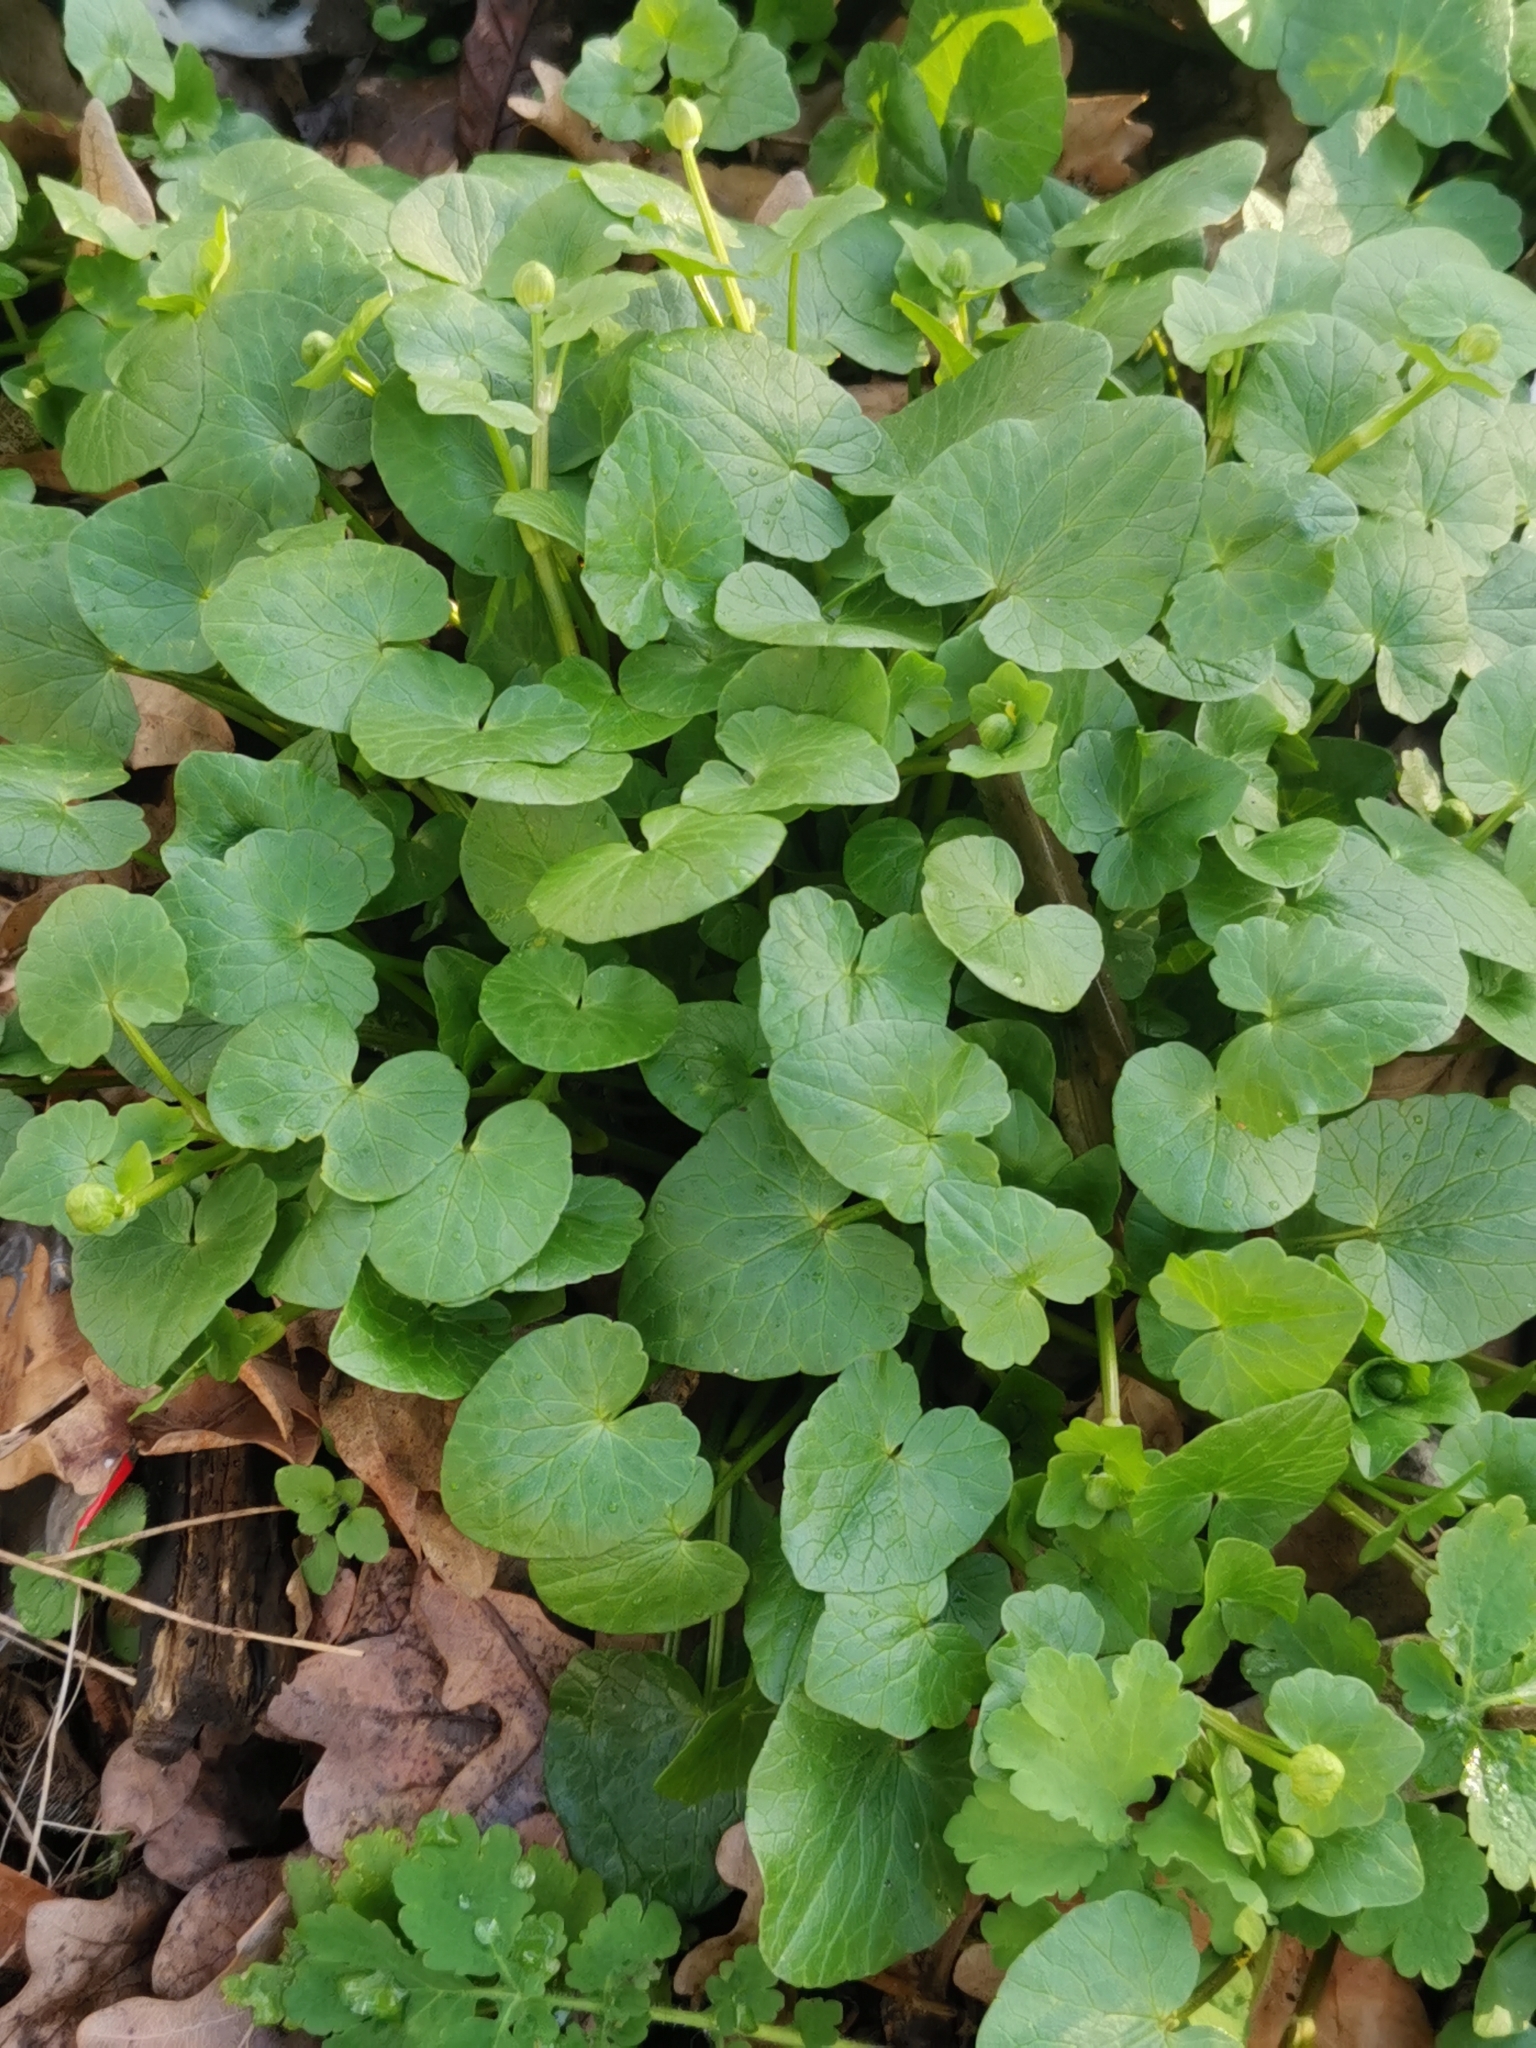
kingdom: Plantae
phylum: Tracheophyta
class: Magnoliopsida
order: Ranunculales
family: Ranunculaceae
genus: Ficaria
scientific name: Ficaria verna
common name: Lesser celandine
